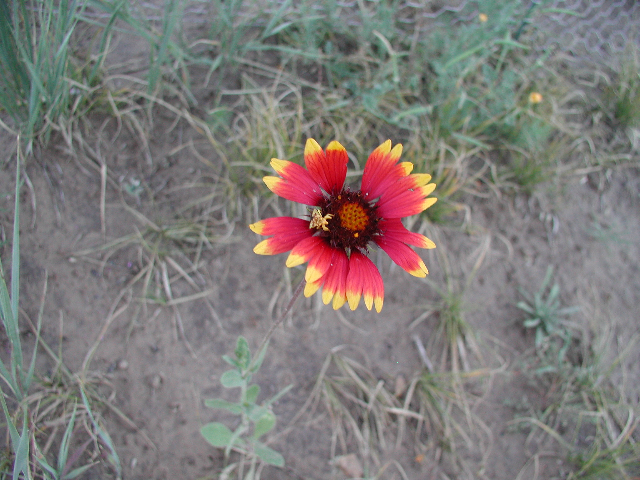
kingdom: Plantae
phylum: Tracheophyta
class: Magnoliopsida
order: Asterales
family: Asteraceae
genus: Gaillardia
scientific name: Gaillardia pulchella
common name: Firewheel
